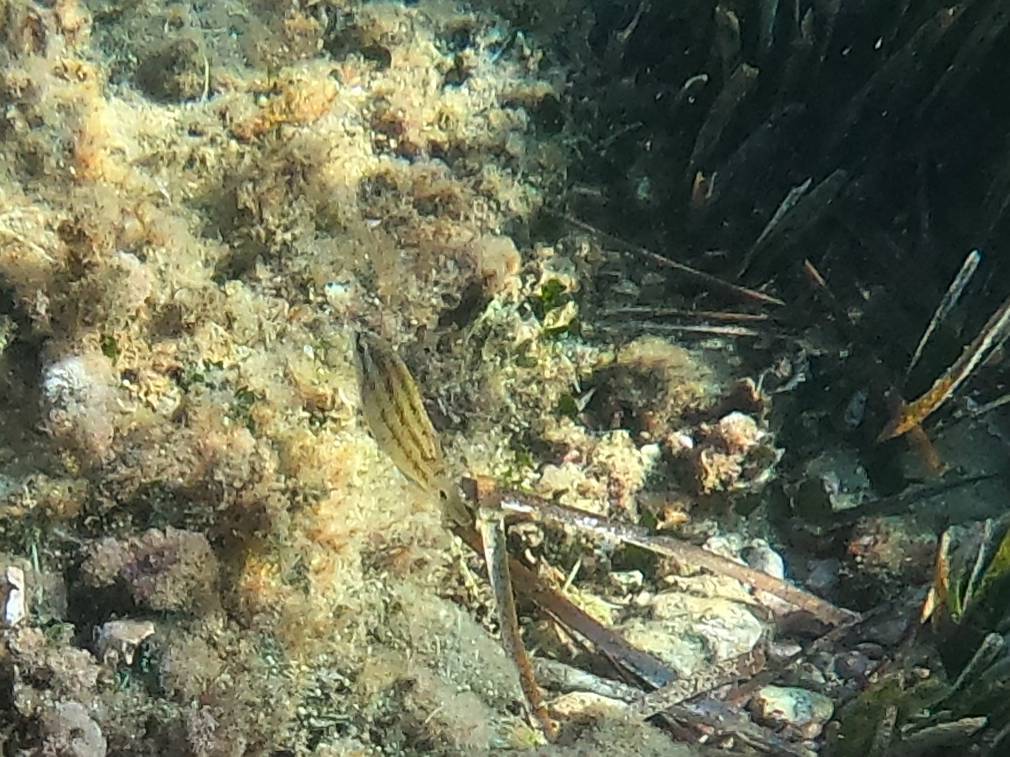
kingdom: Animalia
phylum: Chordata
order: Perciformes
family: Labridae
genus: Symphodus
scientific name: Symphodus tinca
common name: Peacock wrasse
